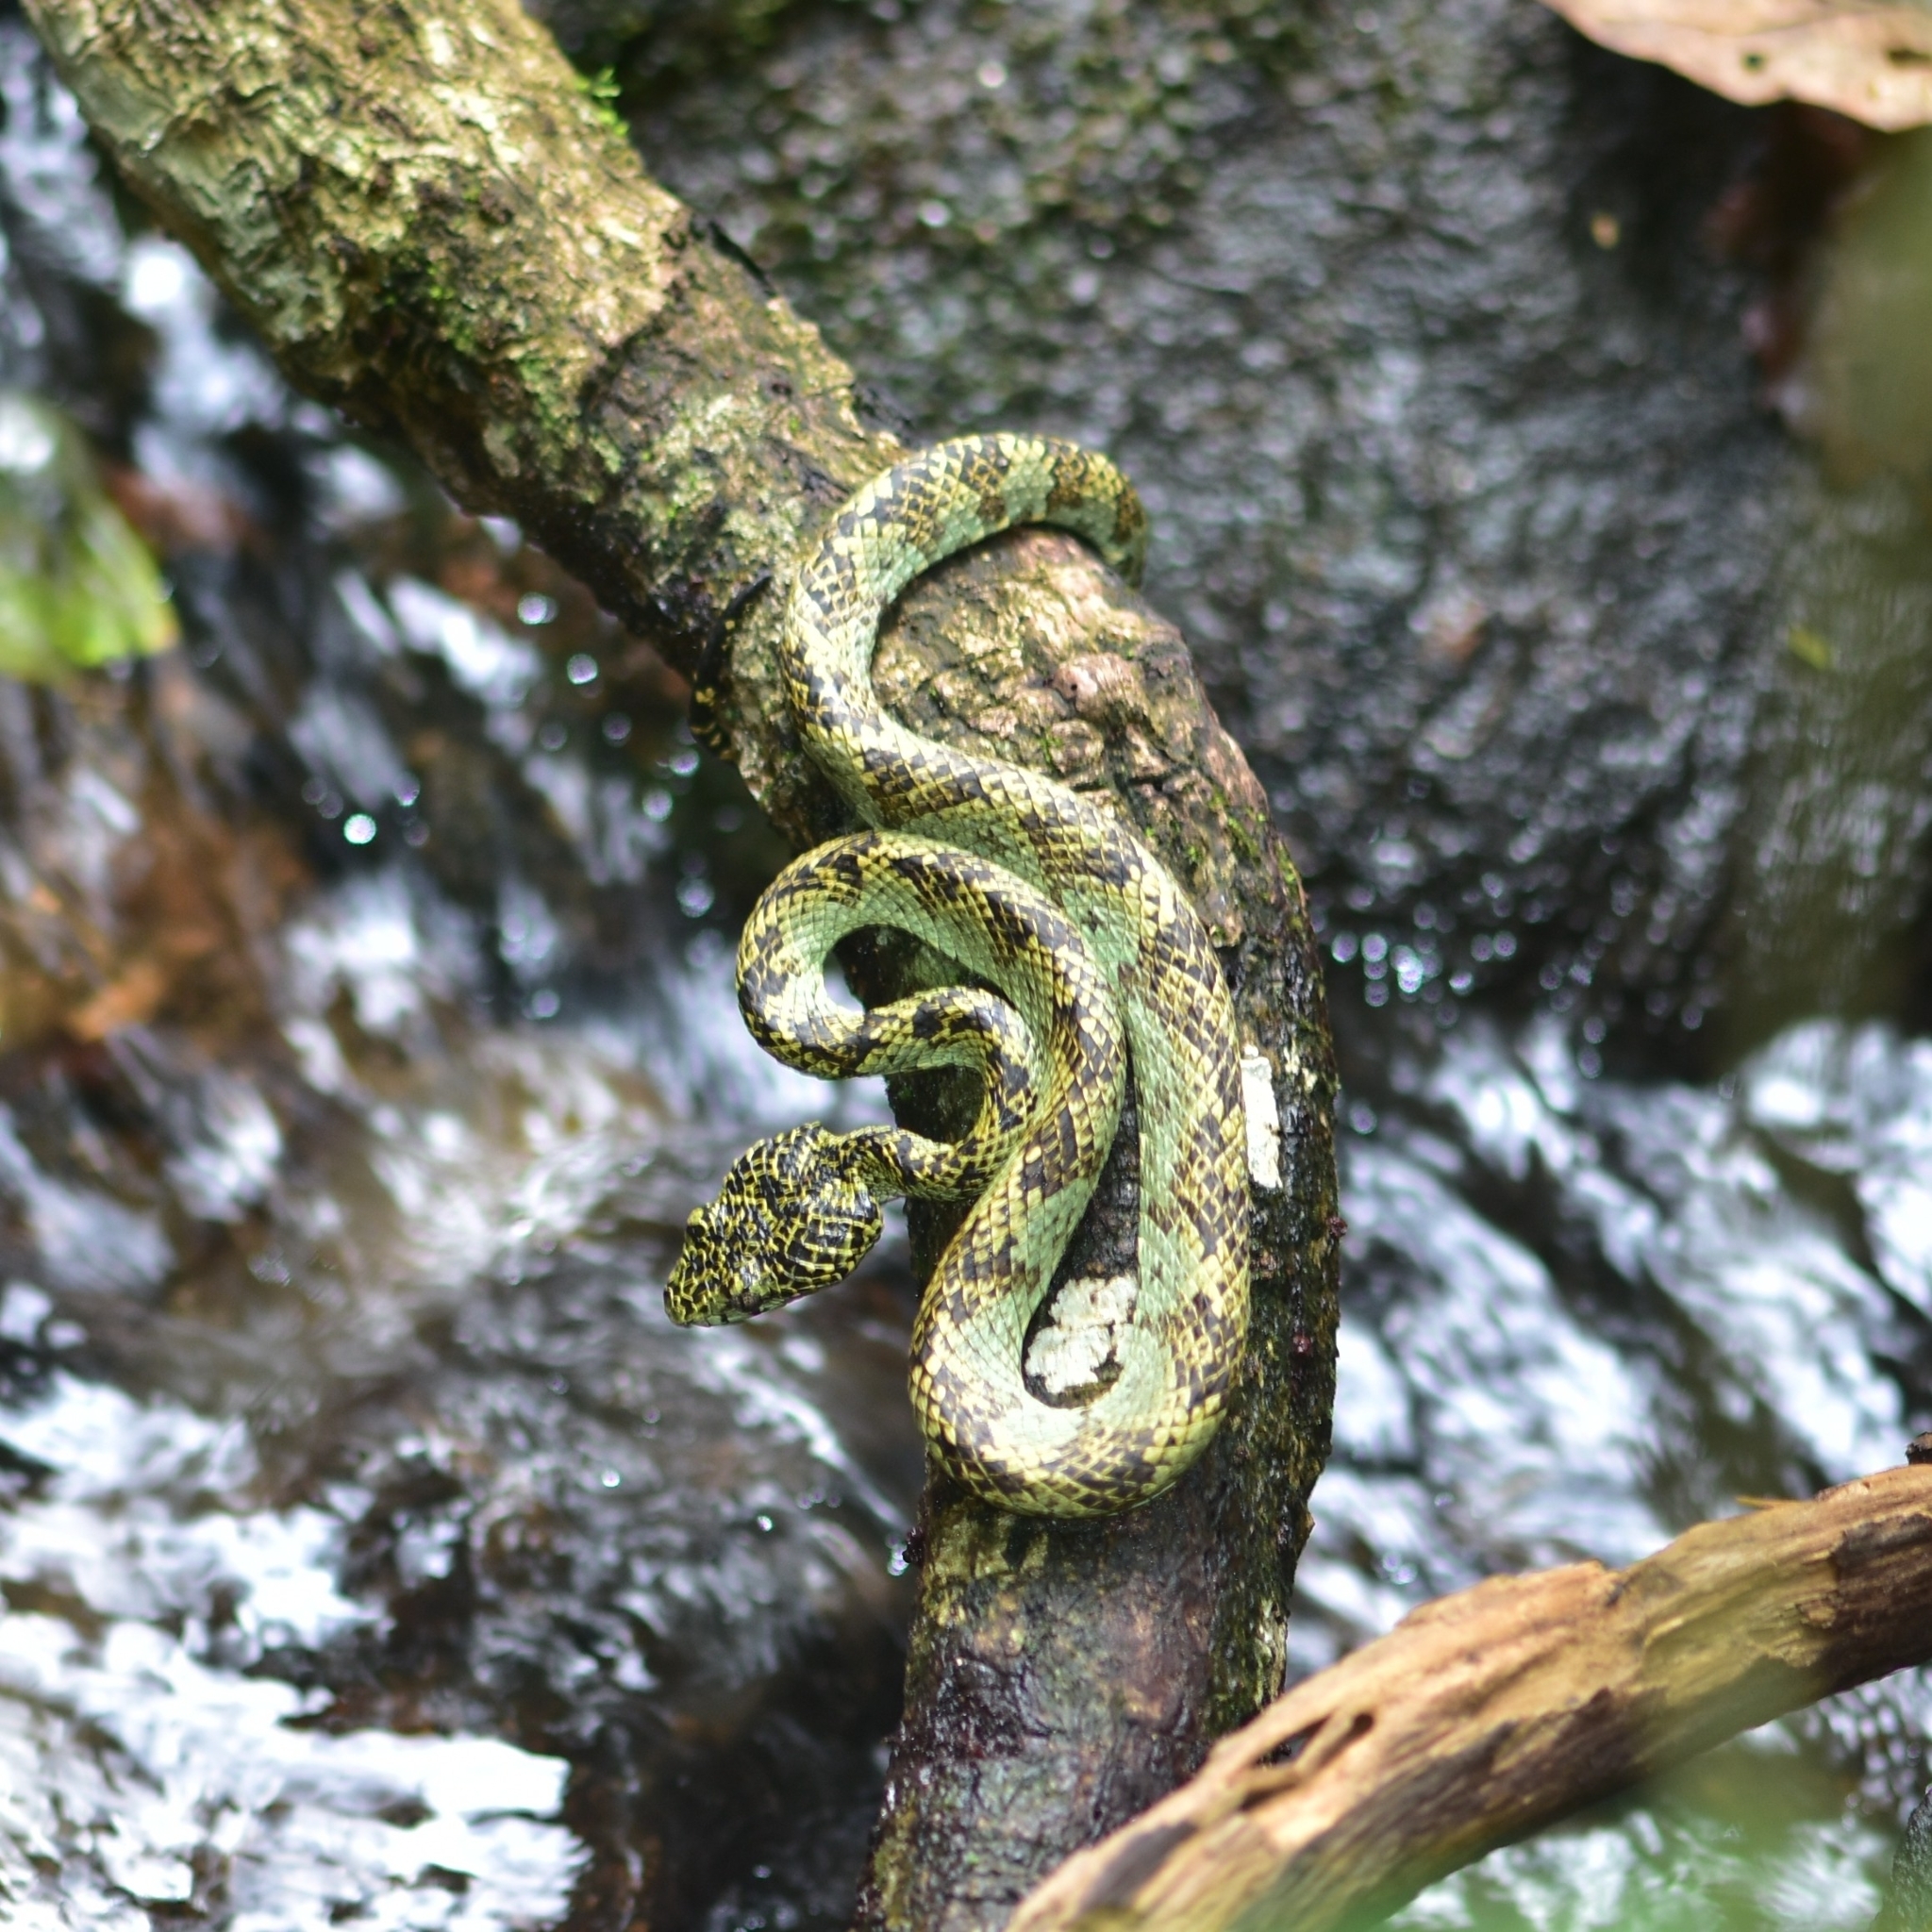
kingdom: Animalia
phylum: Chordata
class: Squamata
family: Viperidae
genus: Craspedocephalus
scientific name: Craspedocephalus anamallensis
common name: Malabarian pit viper
